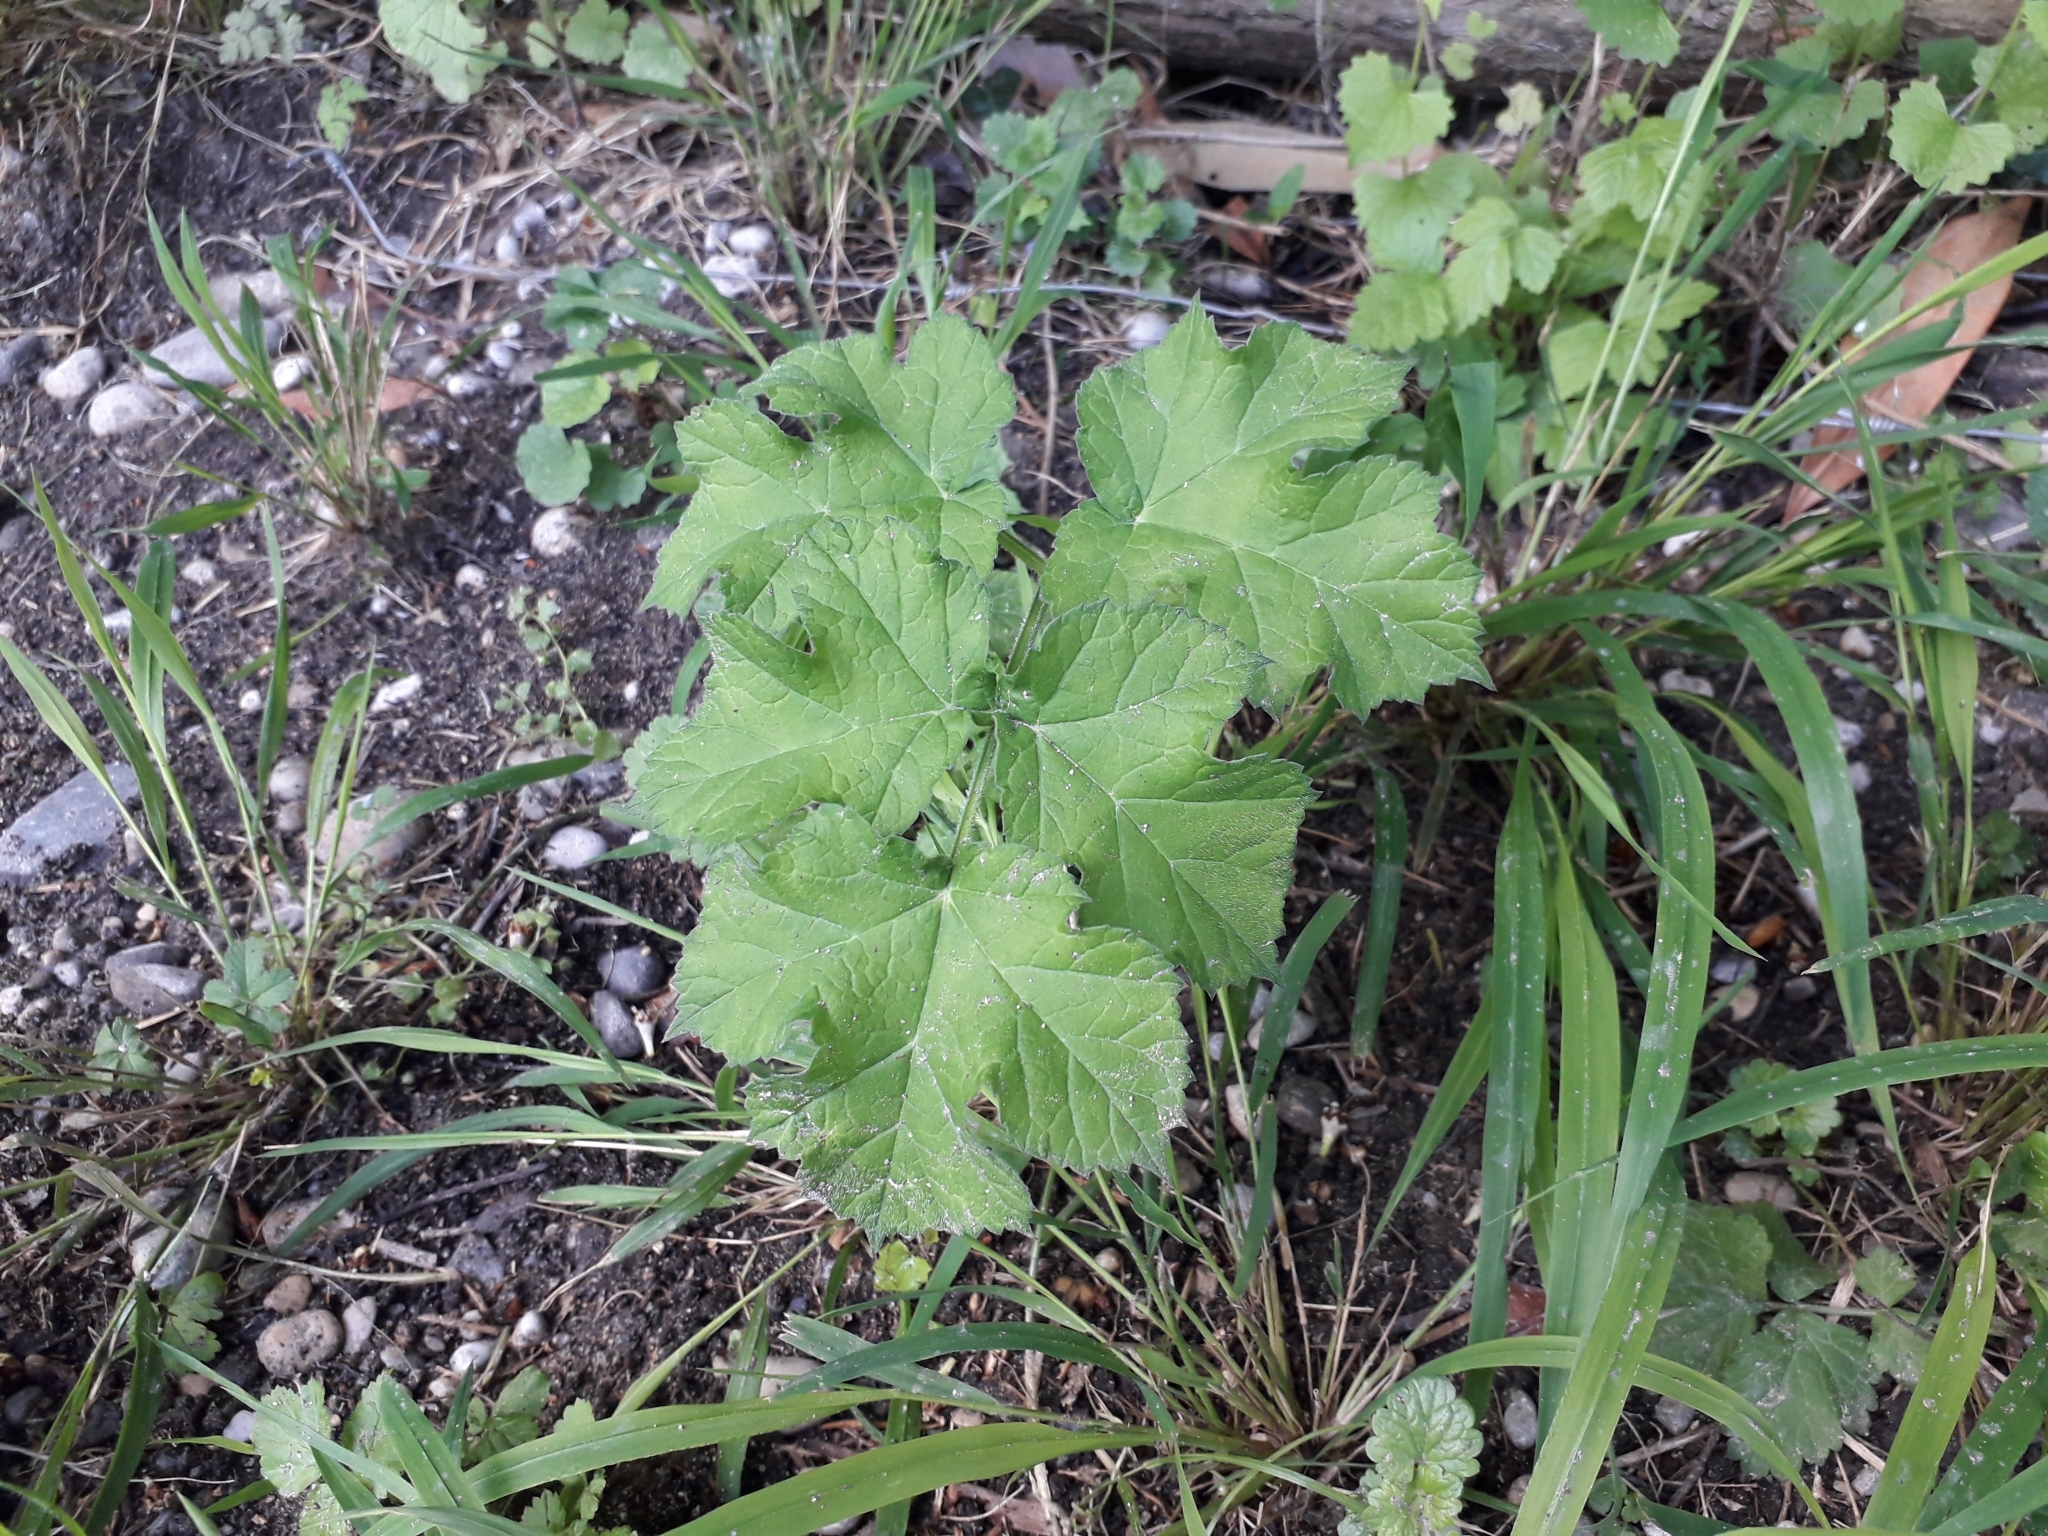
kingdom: Plantae
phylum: Tracheophyta
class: Magnoliopsida
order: Apiales
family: Apiaceae
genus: Heracleum
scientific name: Heracleum sphondylium
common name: Hogweed
